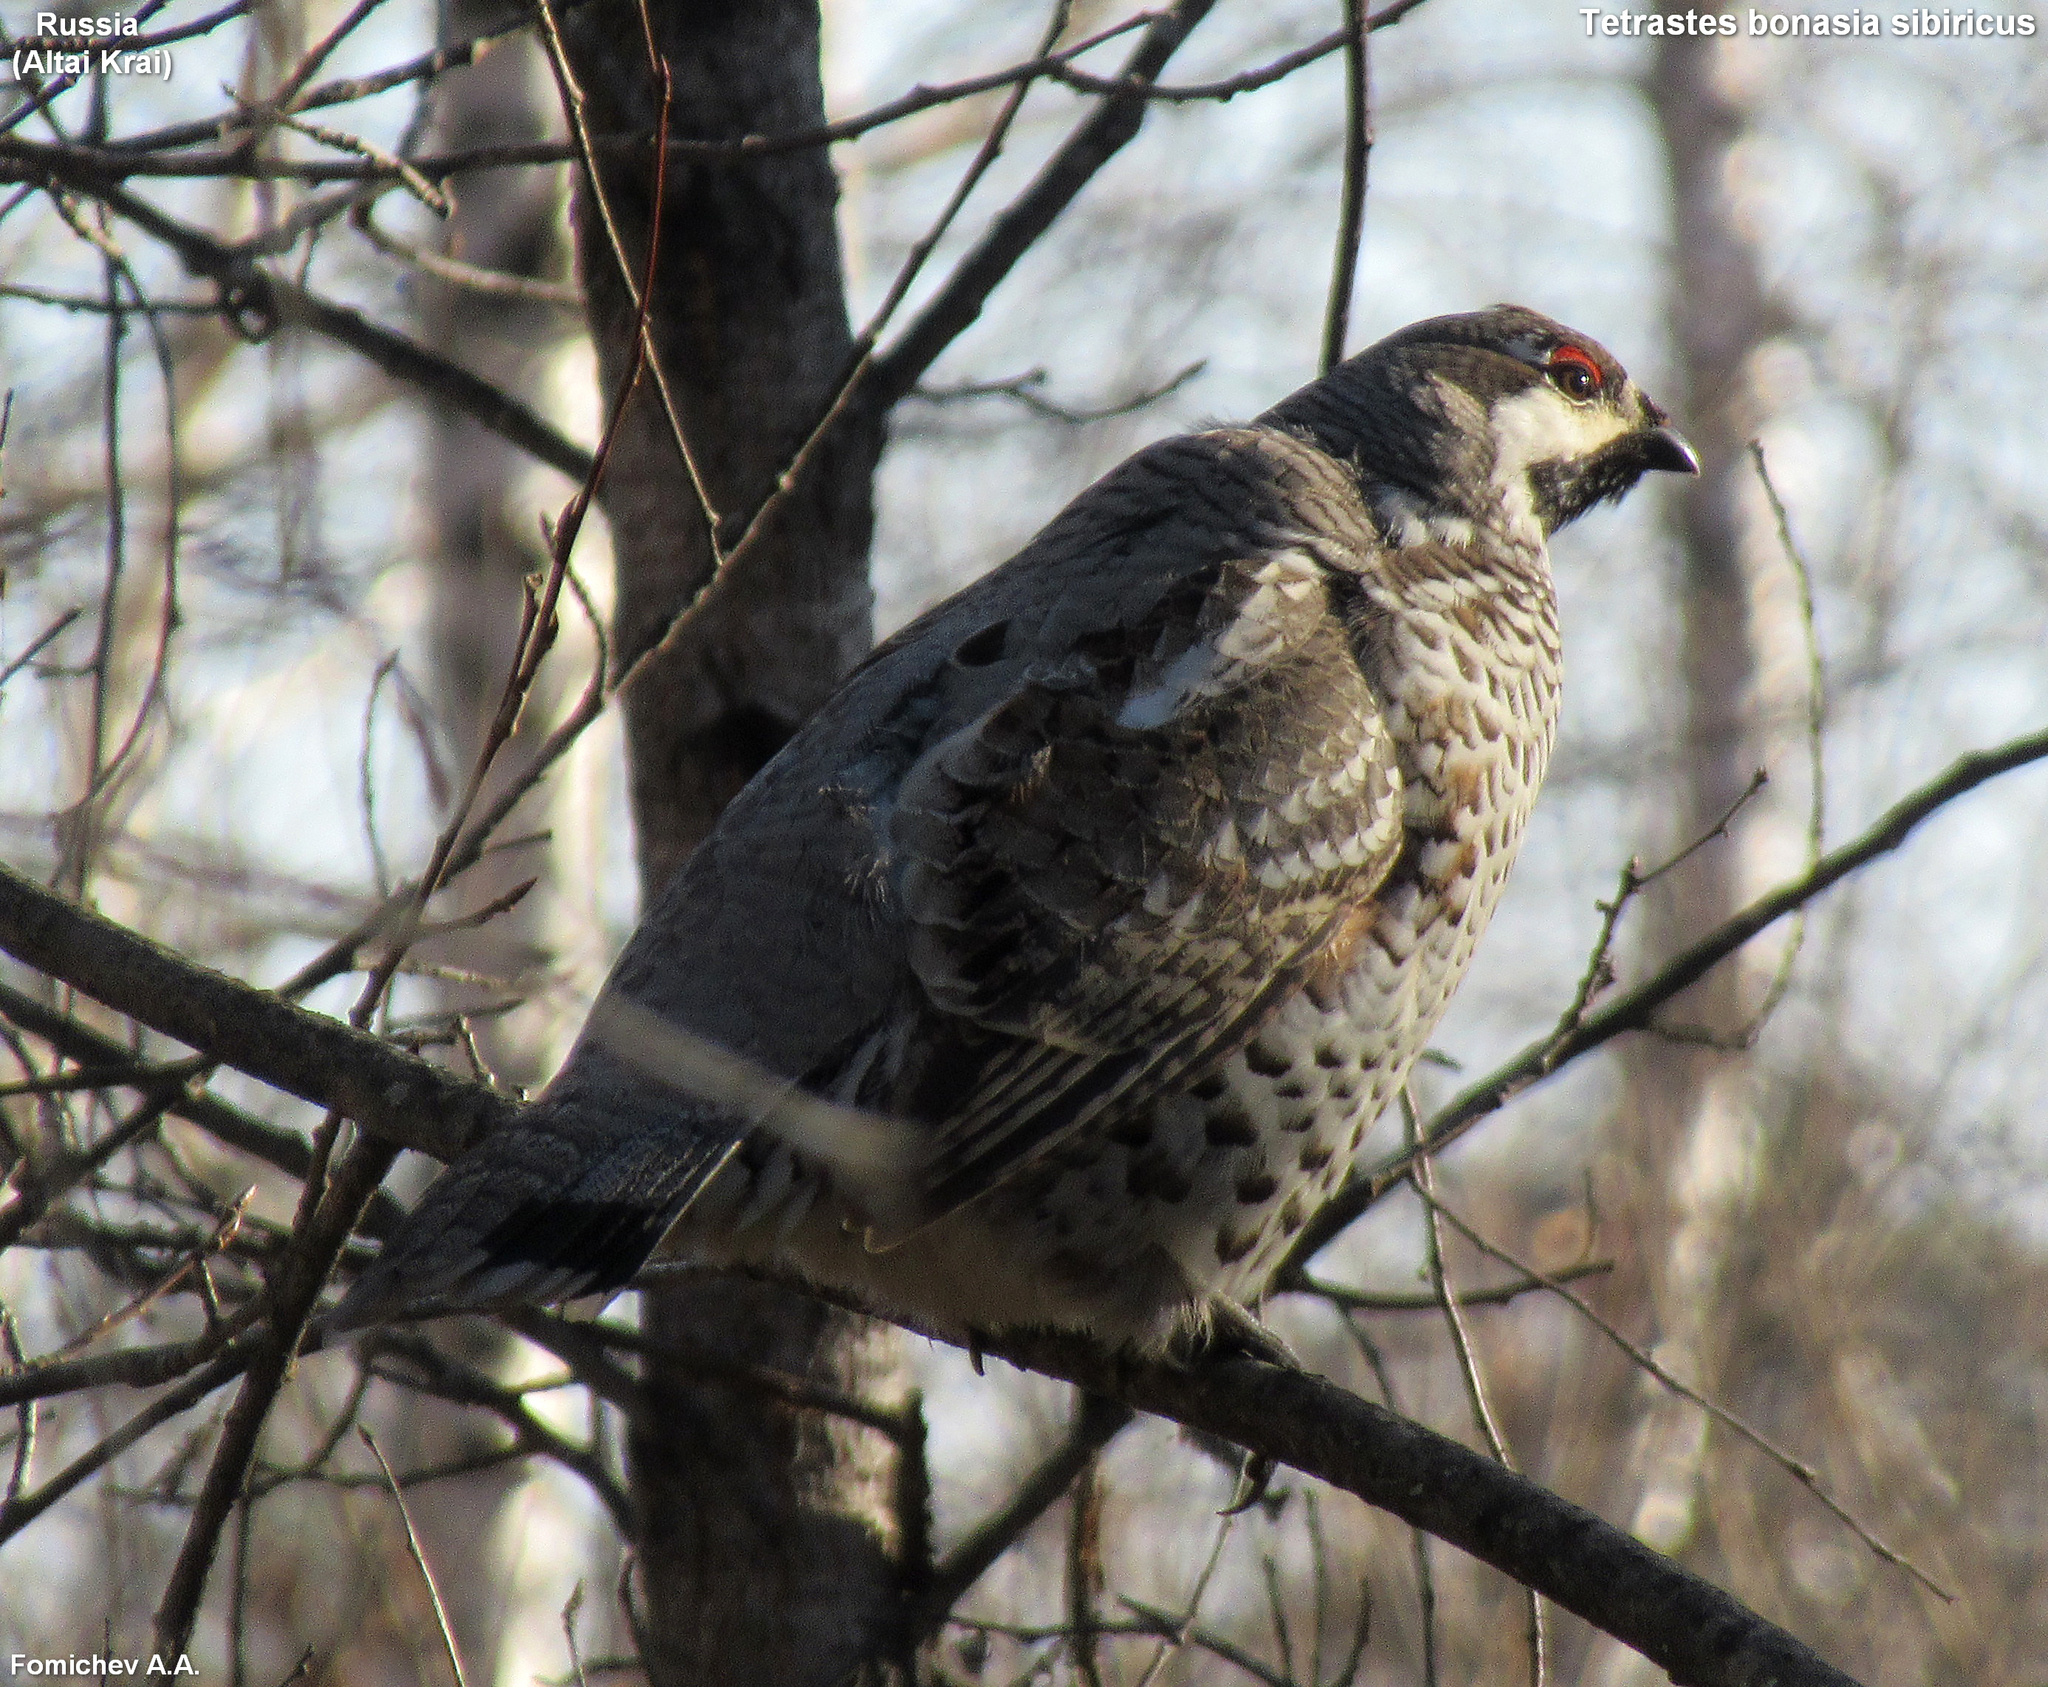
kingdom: Animalia
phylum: Chordata
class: Aves
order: Galliformes
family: Phasianidae
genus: Tetrastes
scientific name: Tetrastes bonasia
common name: Hazel grouse
